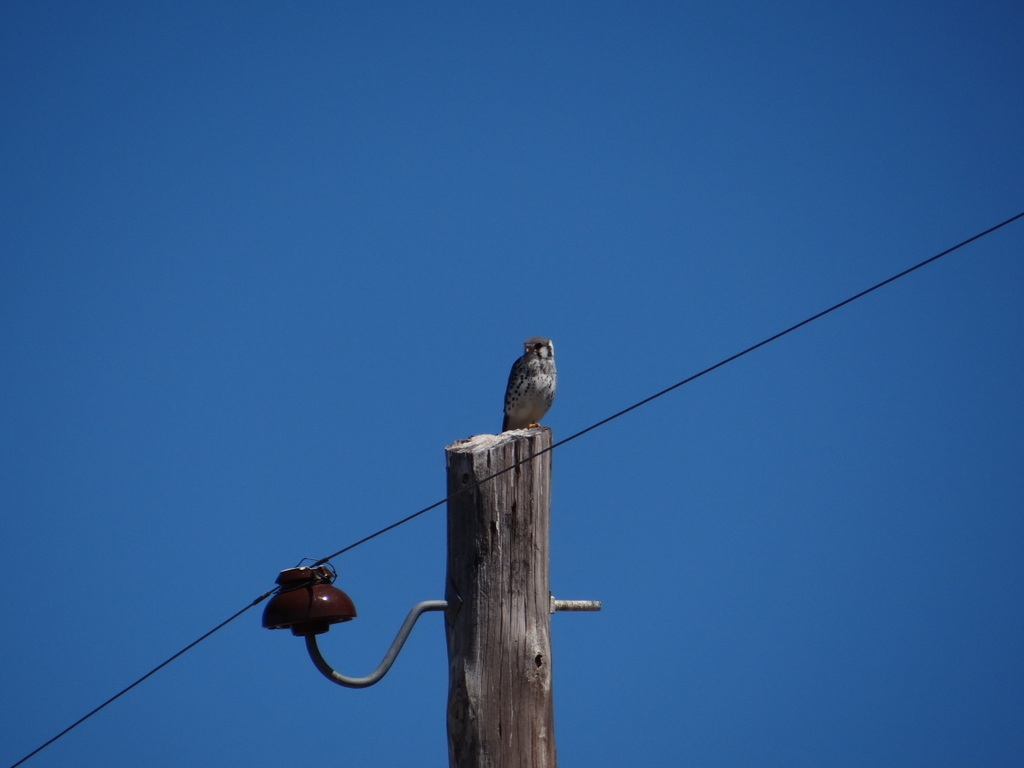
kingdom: Animalia
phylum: Chordata
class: Aves
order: Falconiformes
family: Falconidae
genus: Falco
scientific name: Falco sparverius
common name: American kestrel
